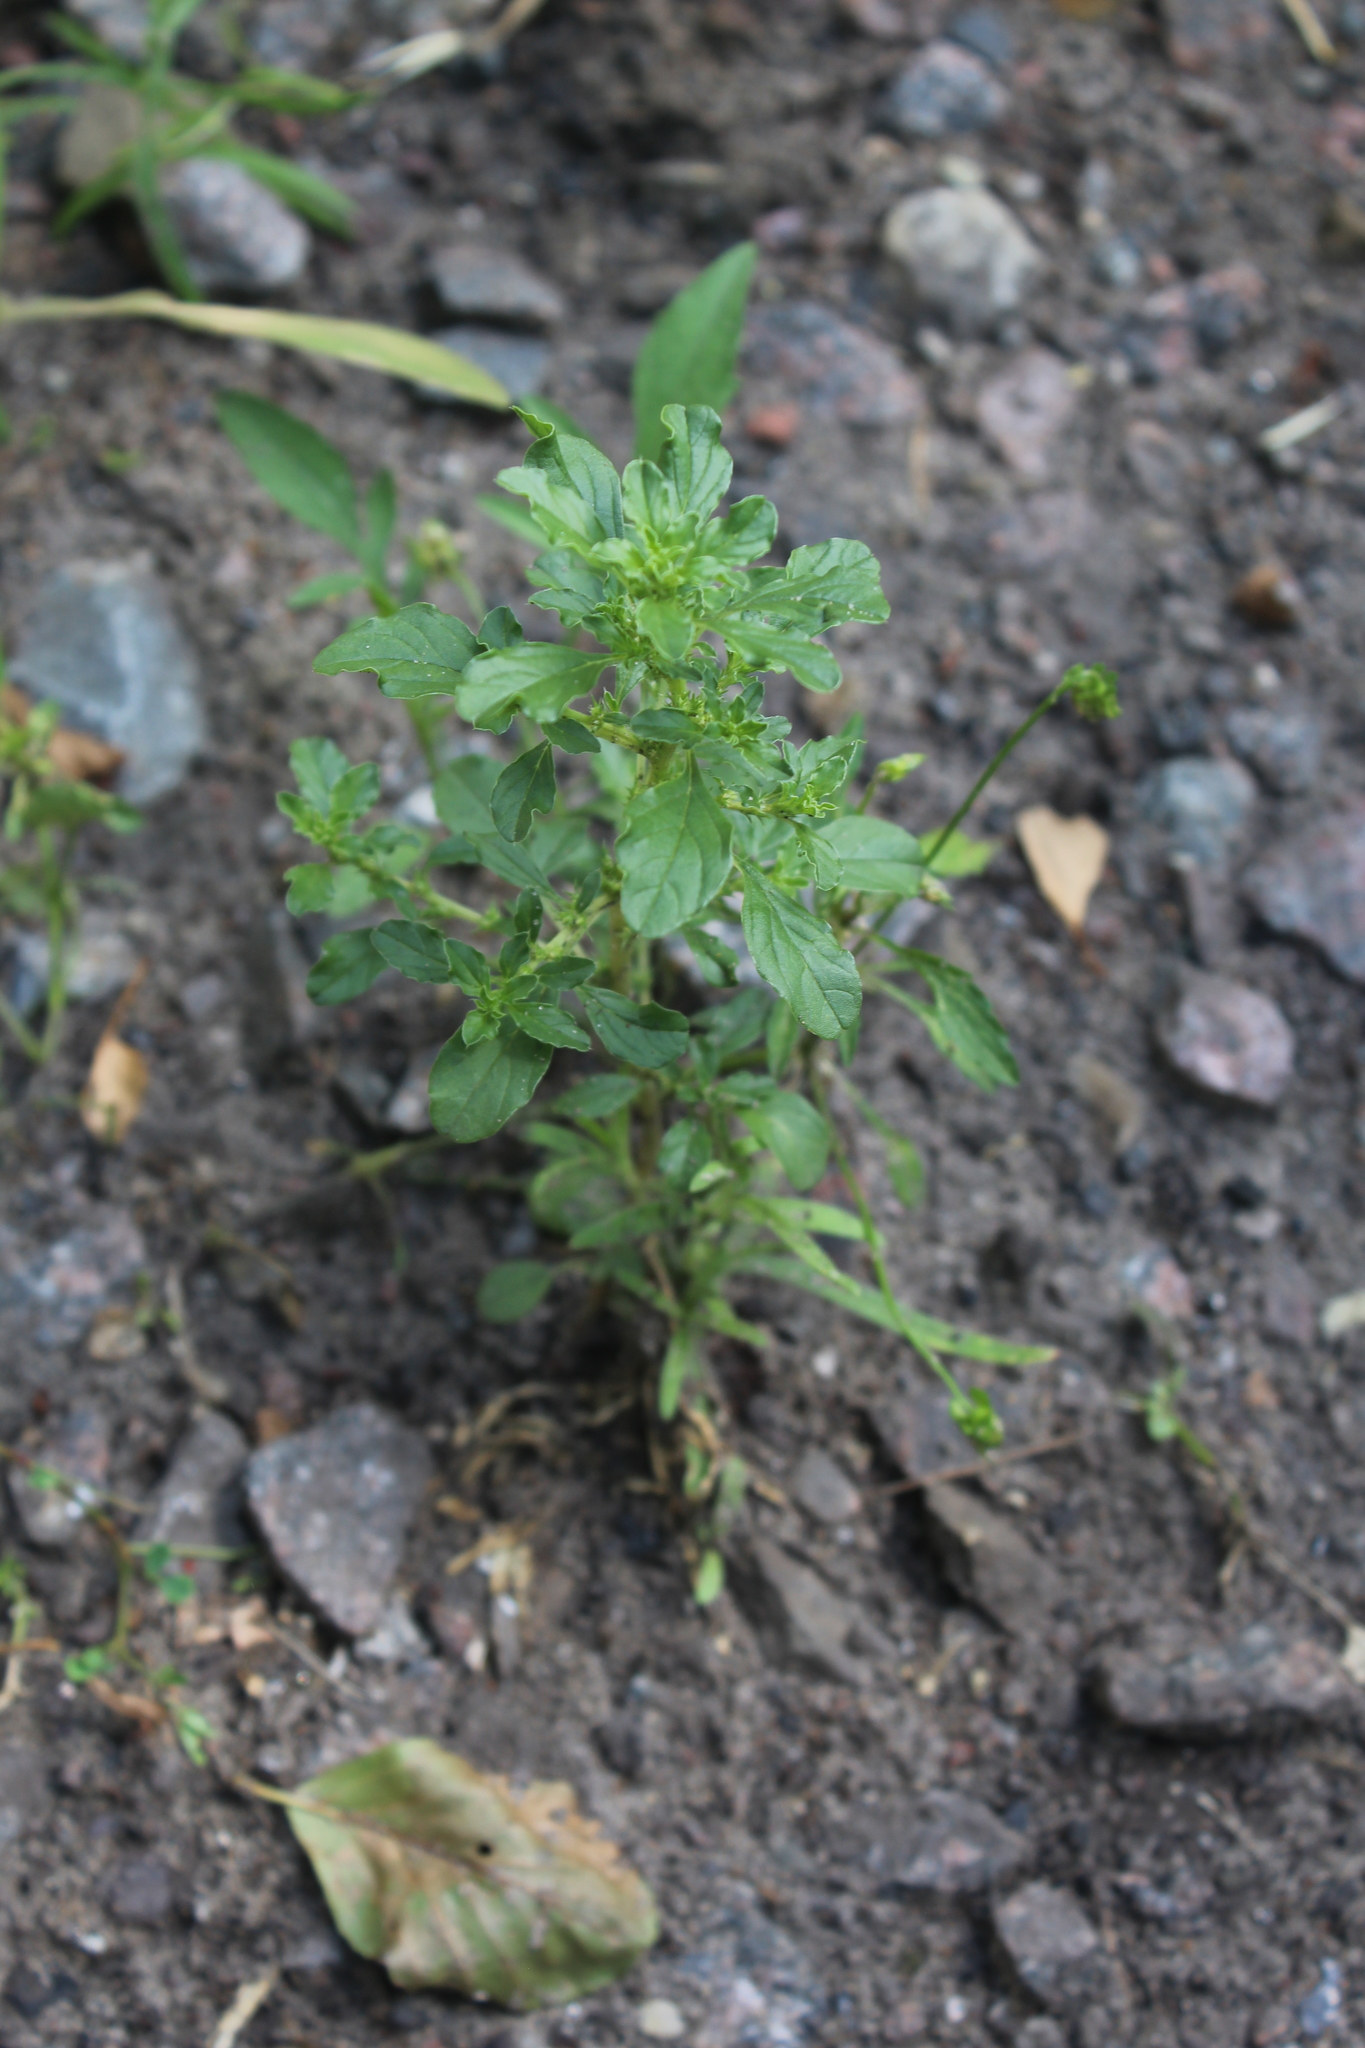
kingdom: Plantae
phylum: Tracheophyta
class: Magnoliopsida
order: Caryophyllales
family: Amaranthaceae
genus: Amaranthus
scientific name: Amaranthus albus
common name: White pigweed
